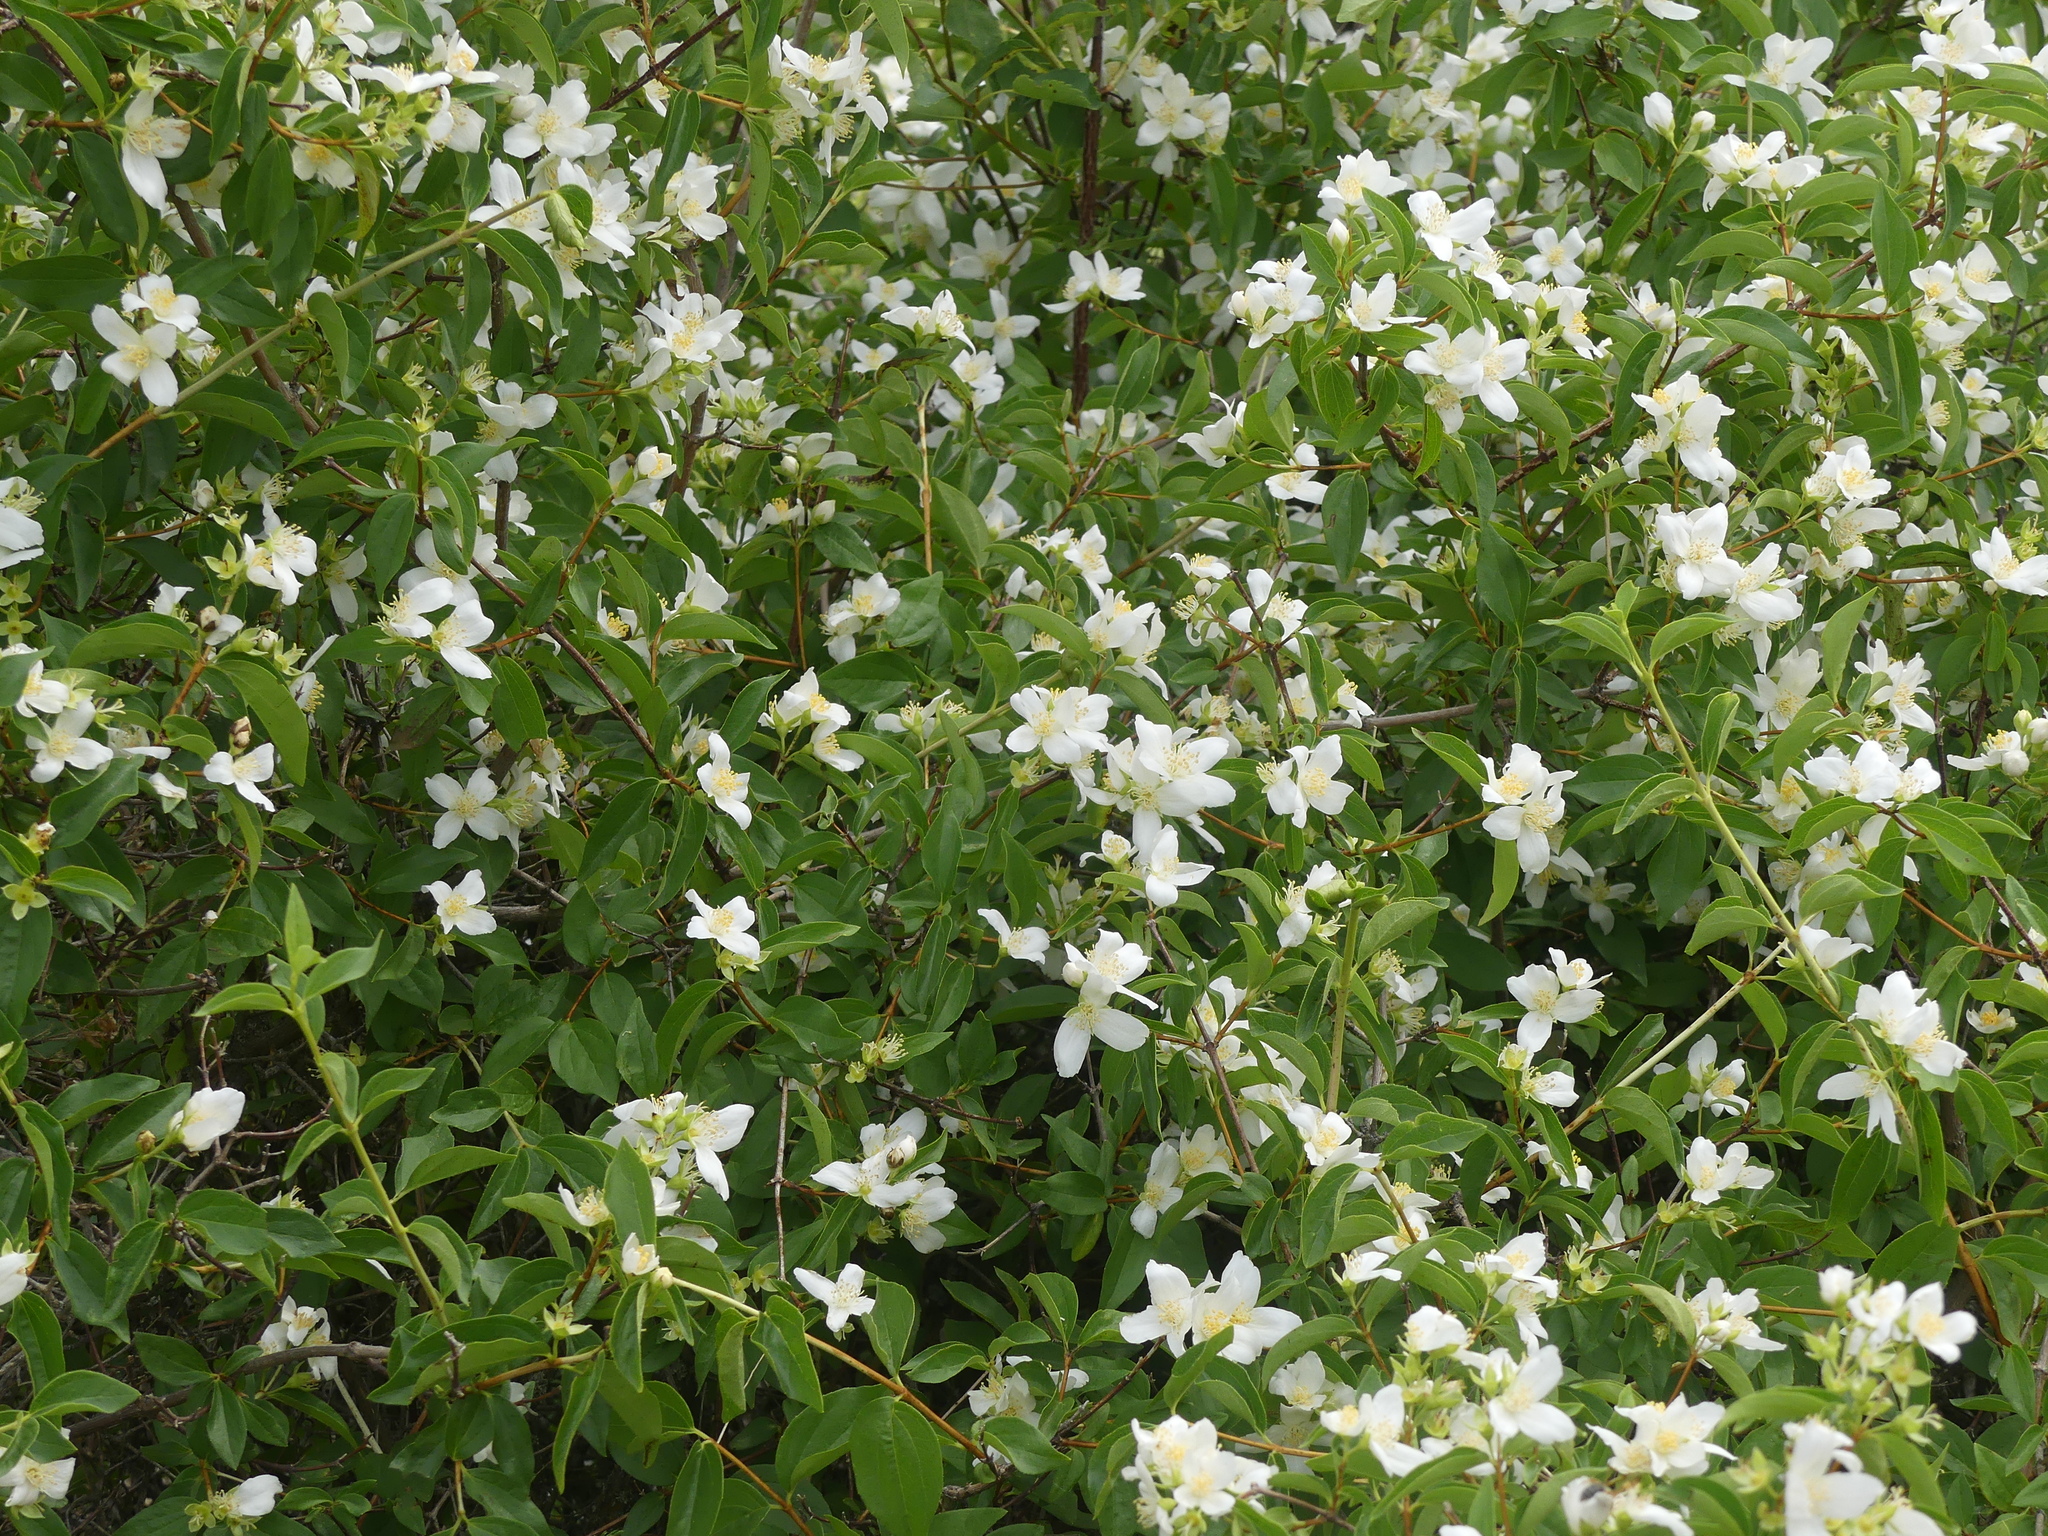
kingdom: Plantae
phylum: Tracheophyta
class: Magnoliopsida
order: Cornales
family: Hydrangeaceae
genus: Philadelphus
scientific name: Philadelphus lewisii
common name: Lewis's mock orange
